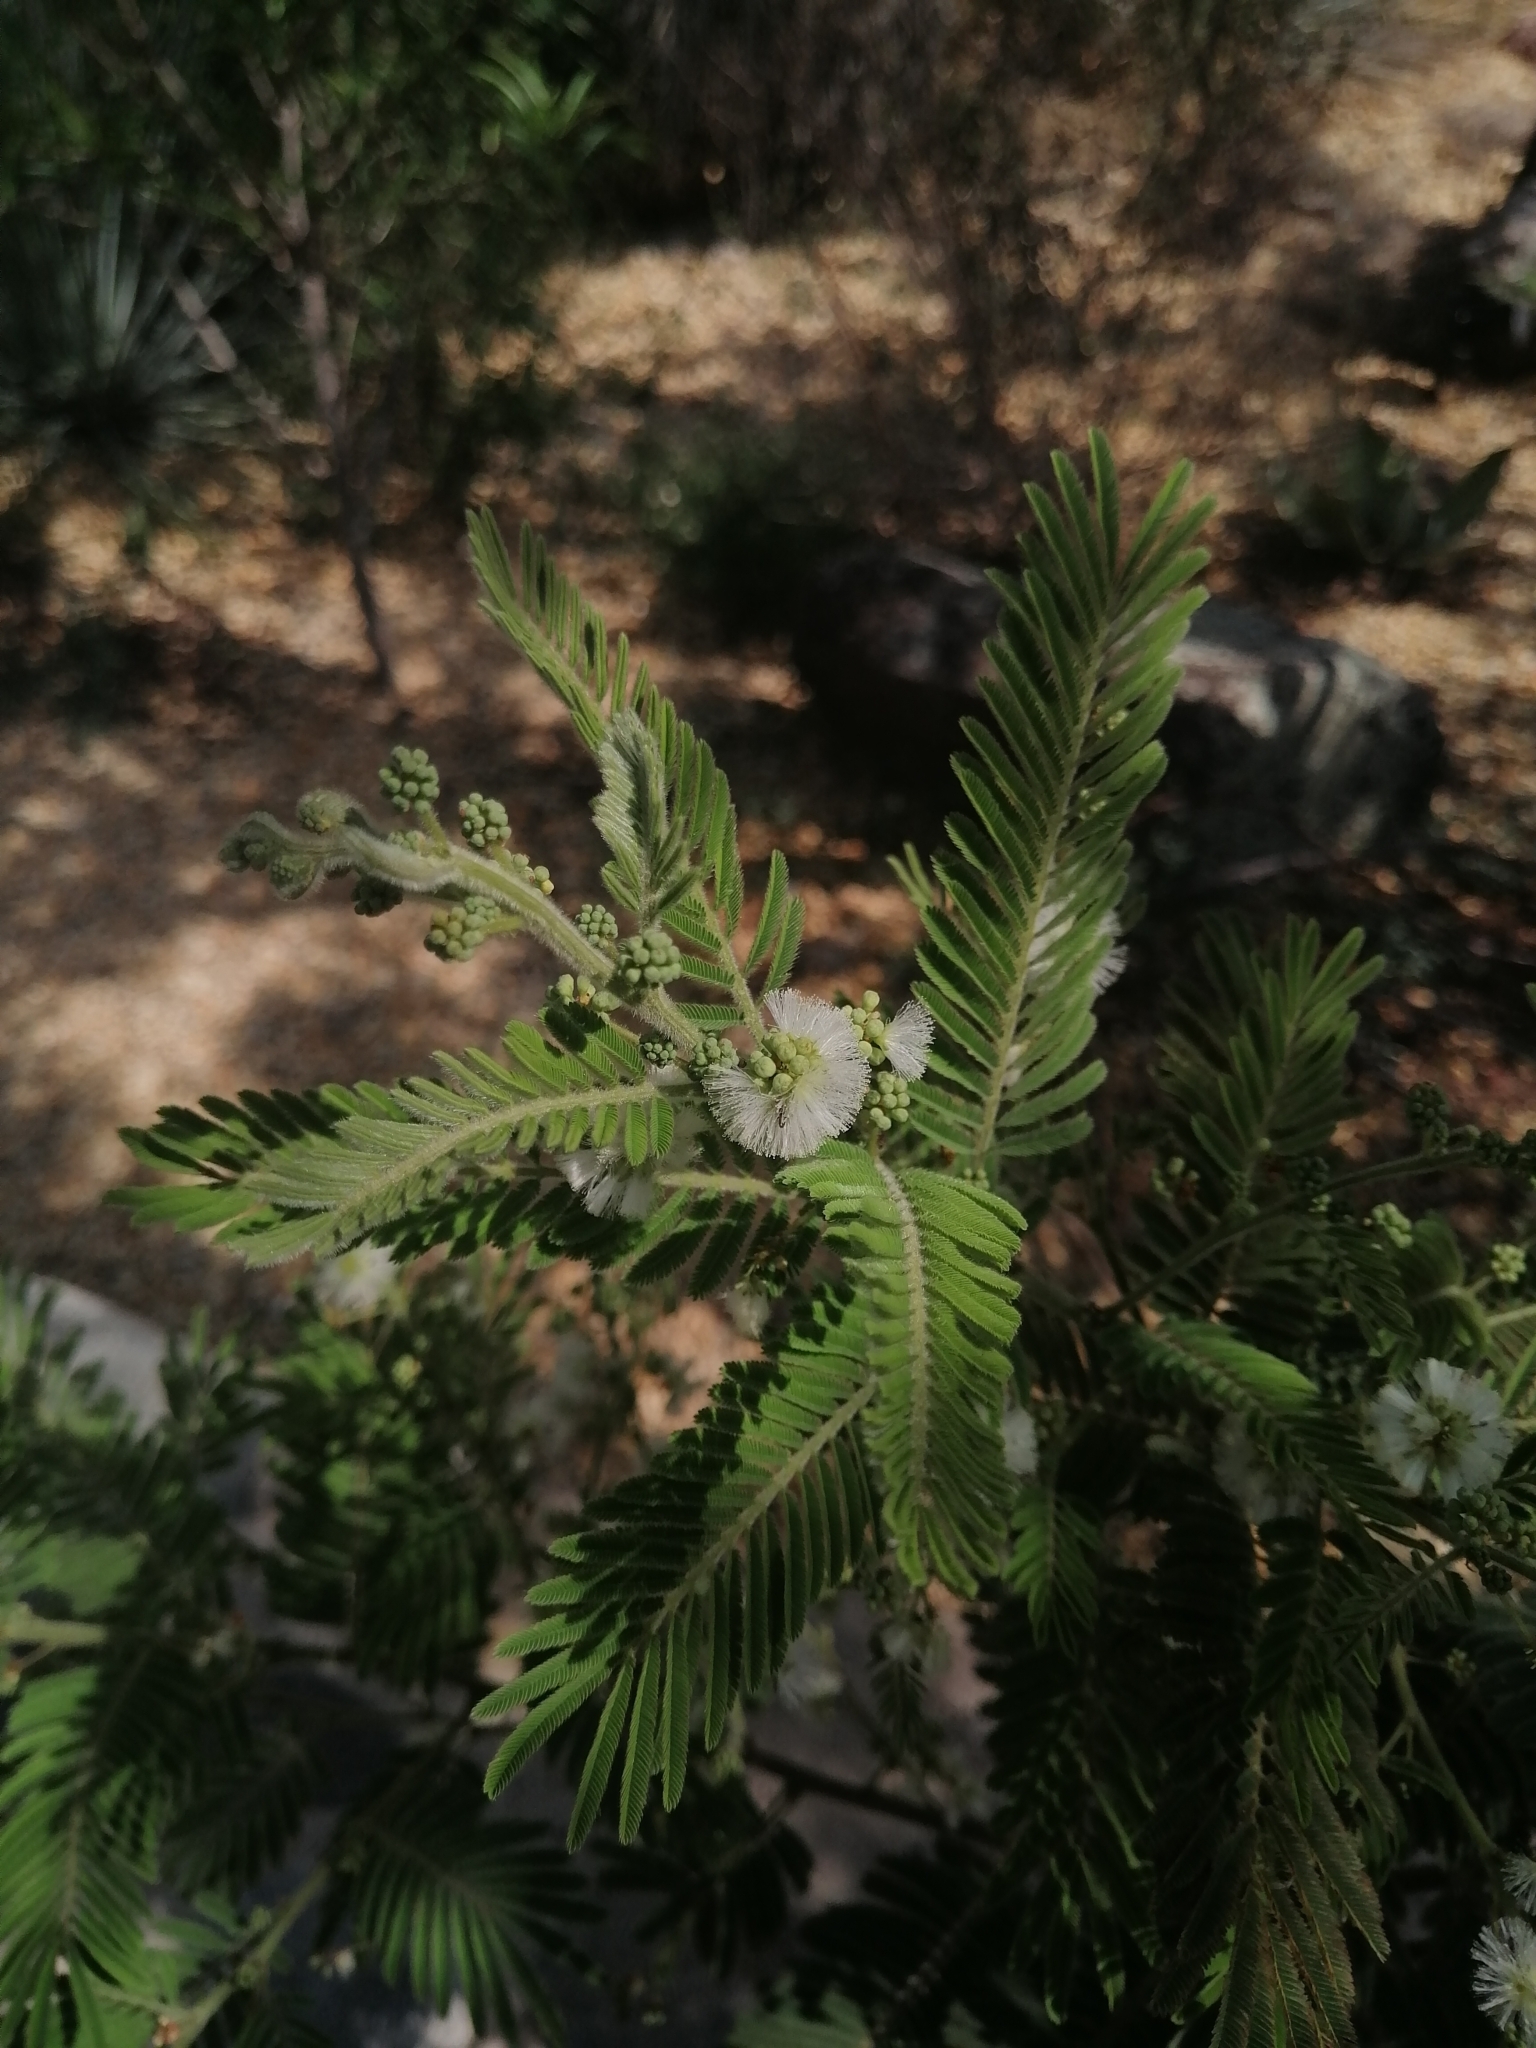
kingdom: Plantae
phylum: Tracheophyta
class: Magnoliopsida
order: Fabales
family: Fabaceae
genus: Acaciella
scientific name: Acaciella angustissima
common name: Prairie acacia
